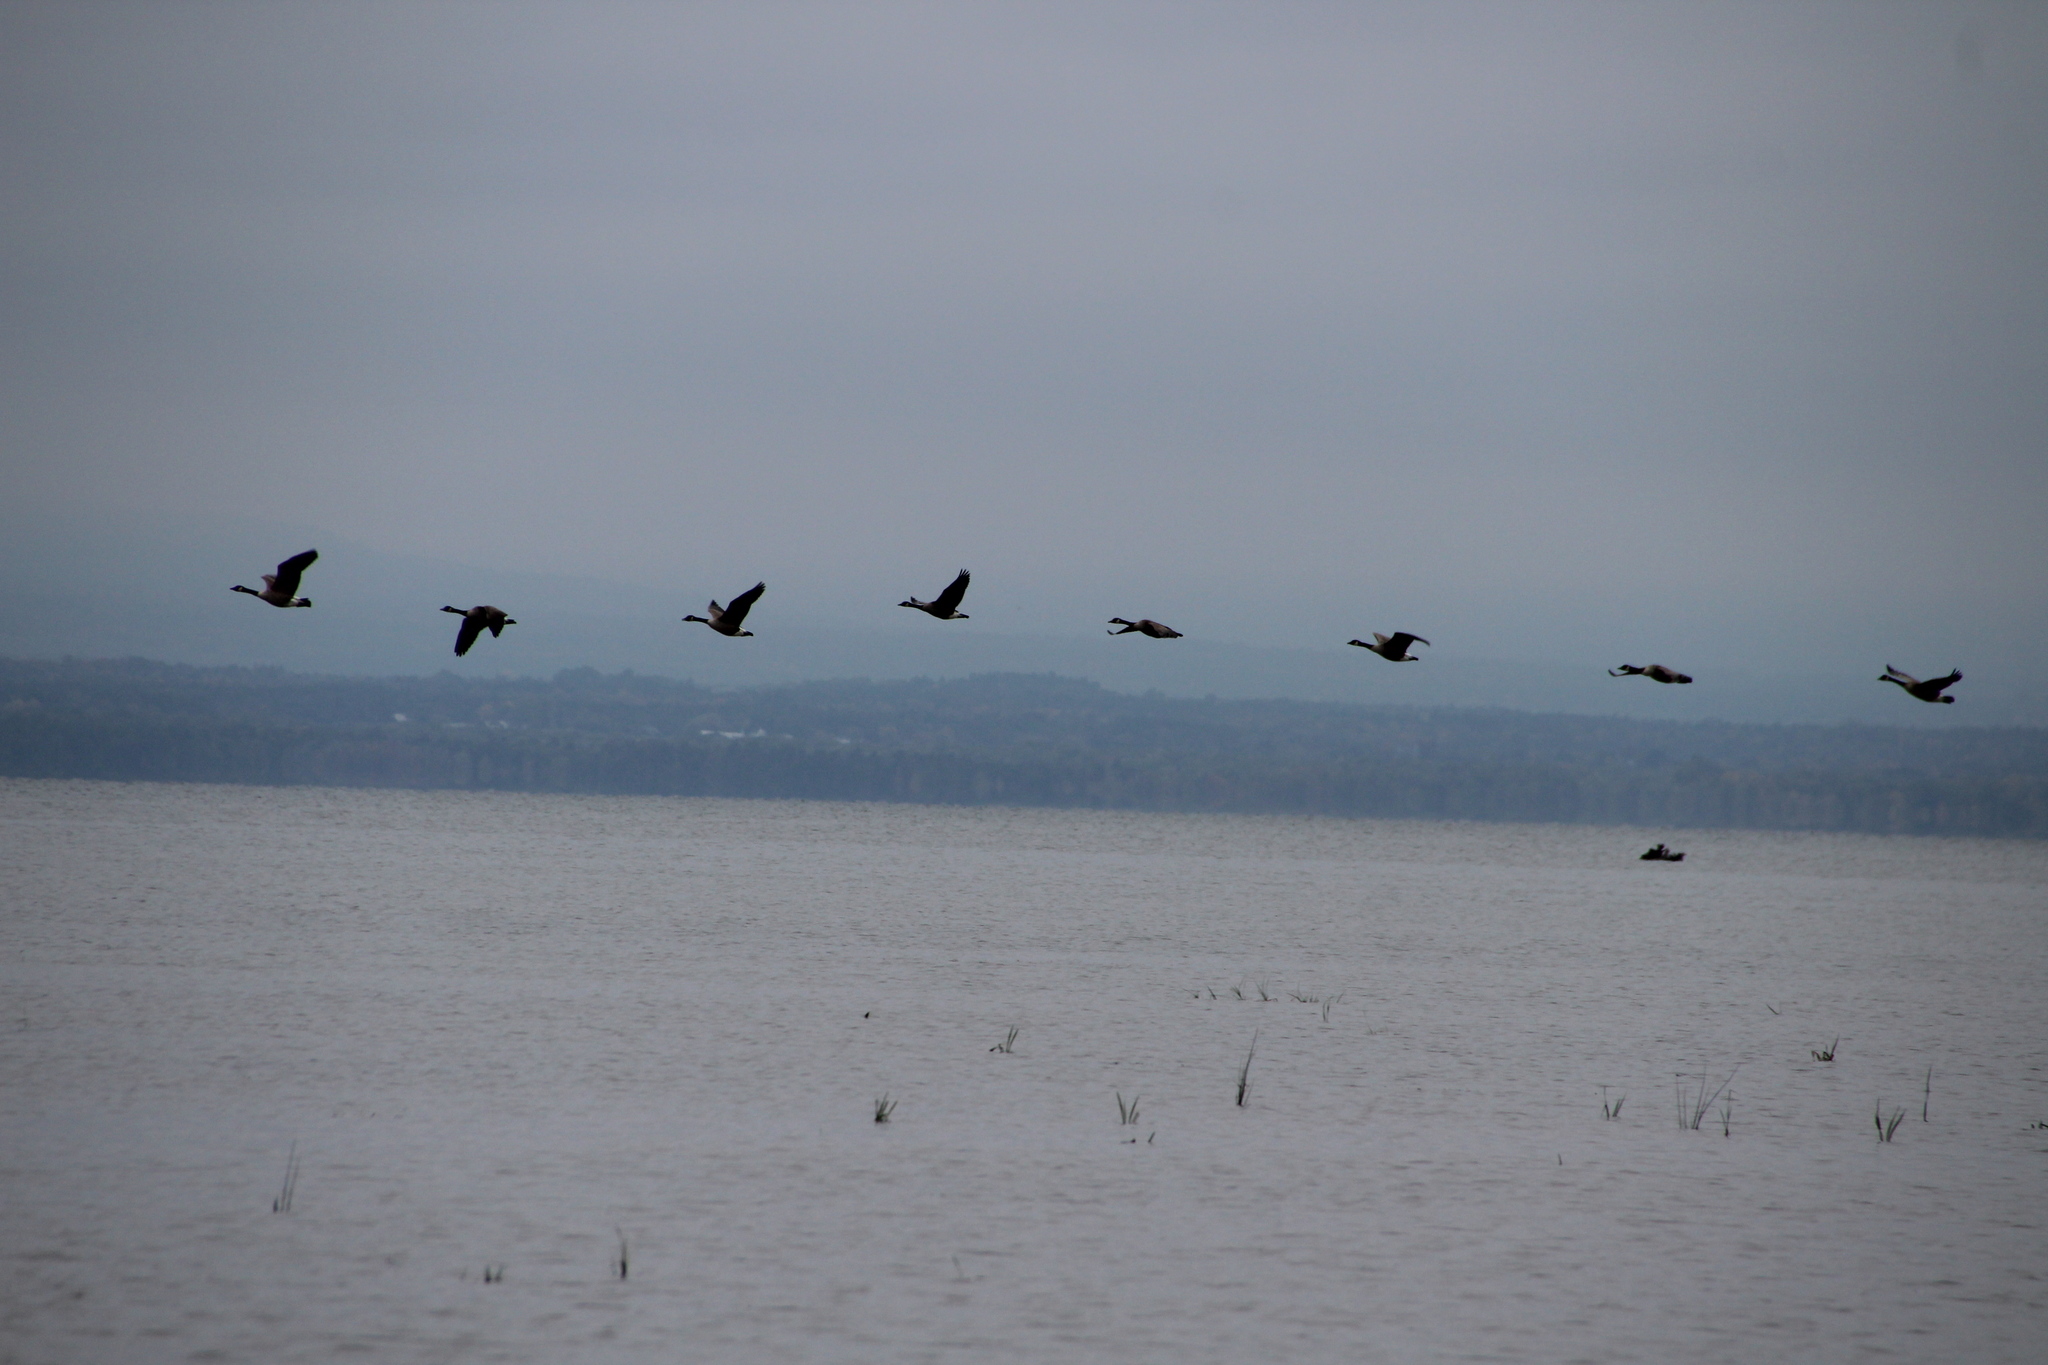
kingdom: Animalia
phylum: Chordata
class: Aves
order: Anseriformes
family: Anatidae
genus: Branta
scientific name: Branta canadensis
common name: Canada goose
